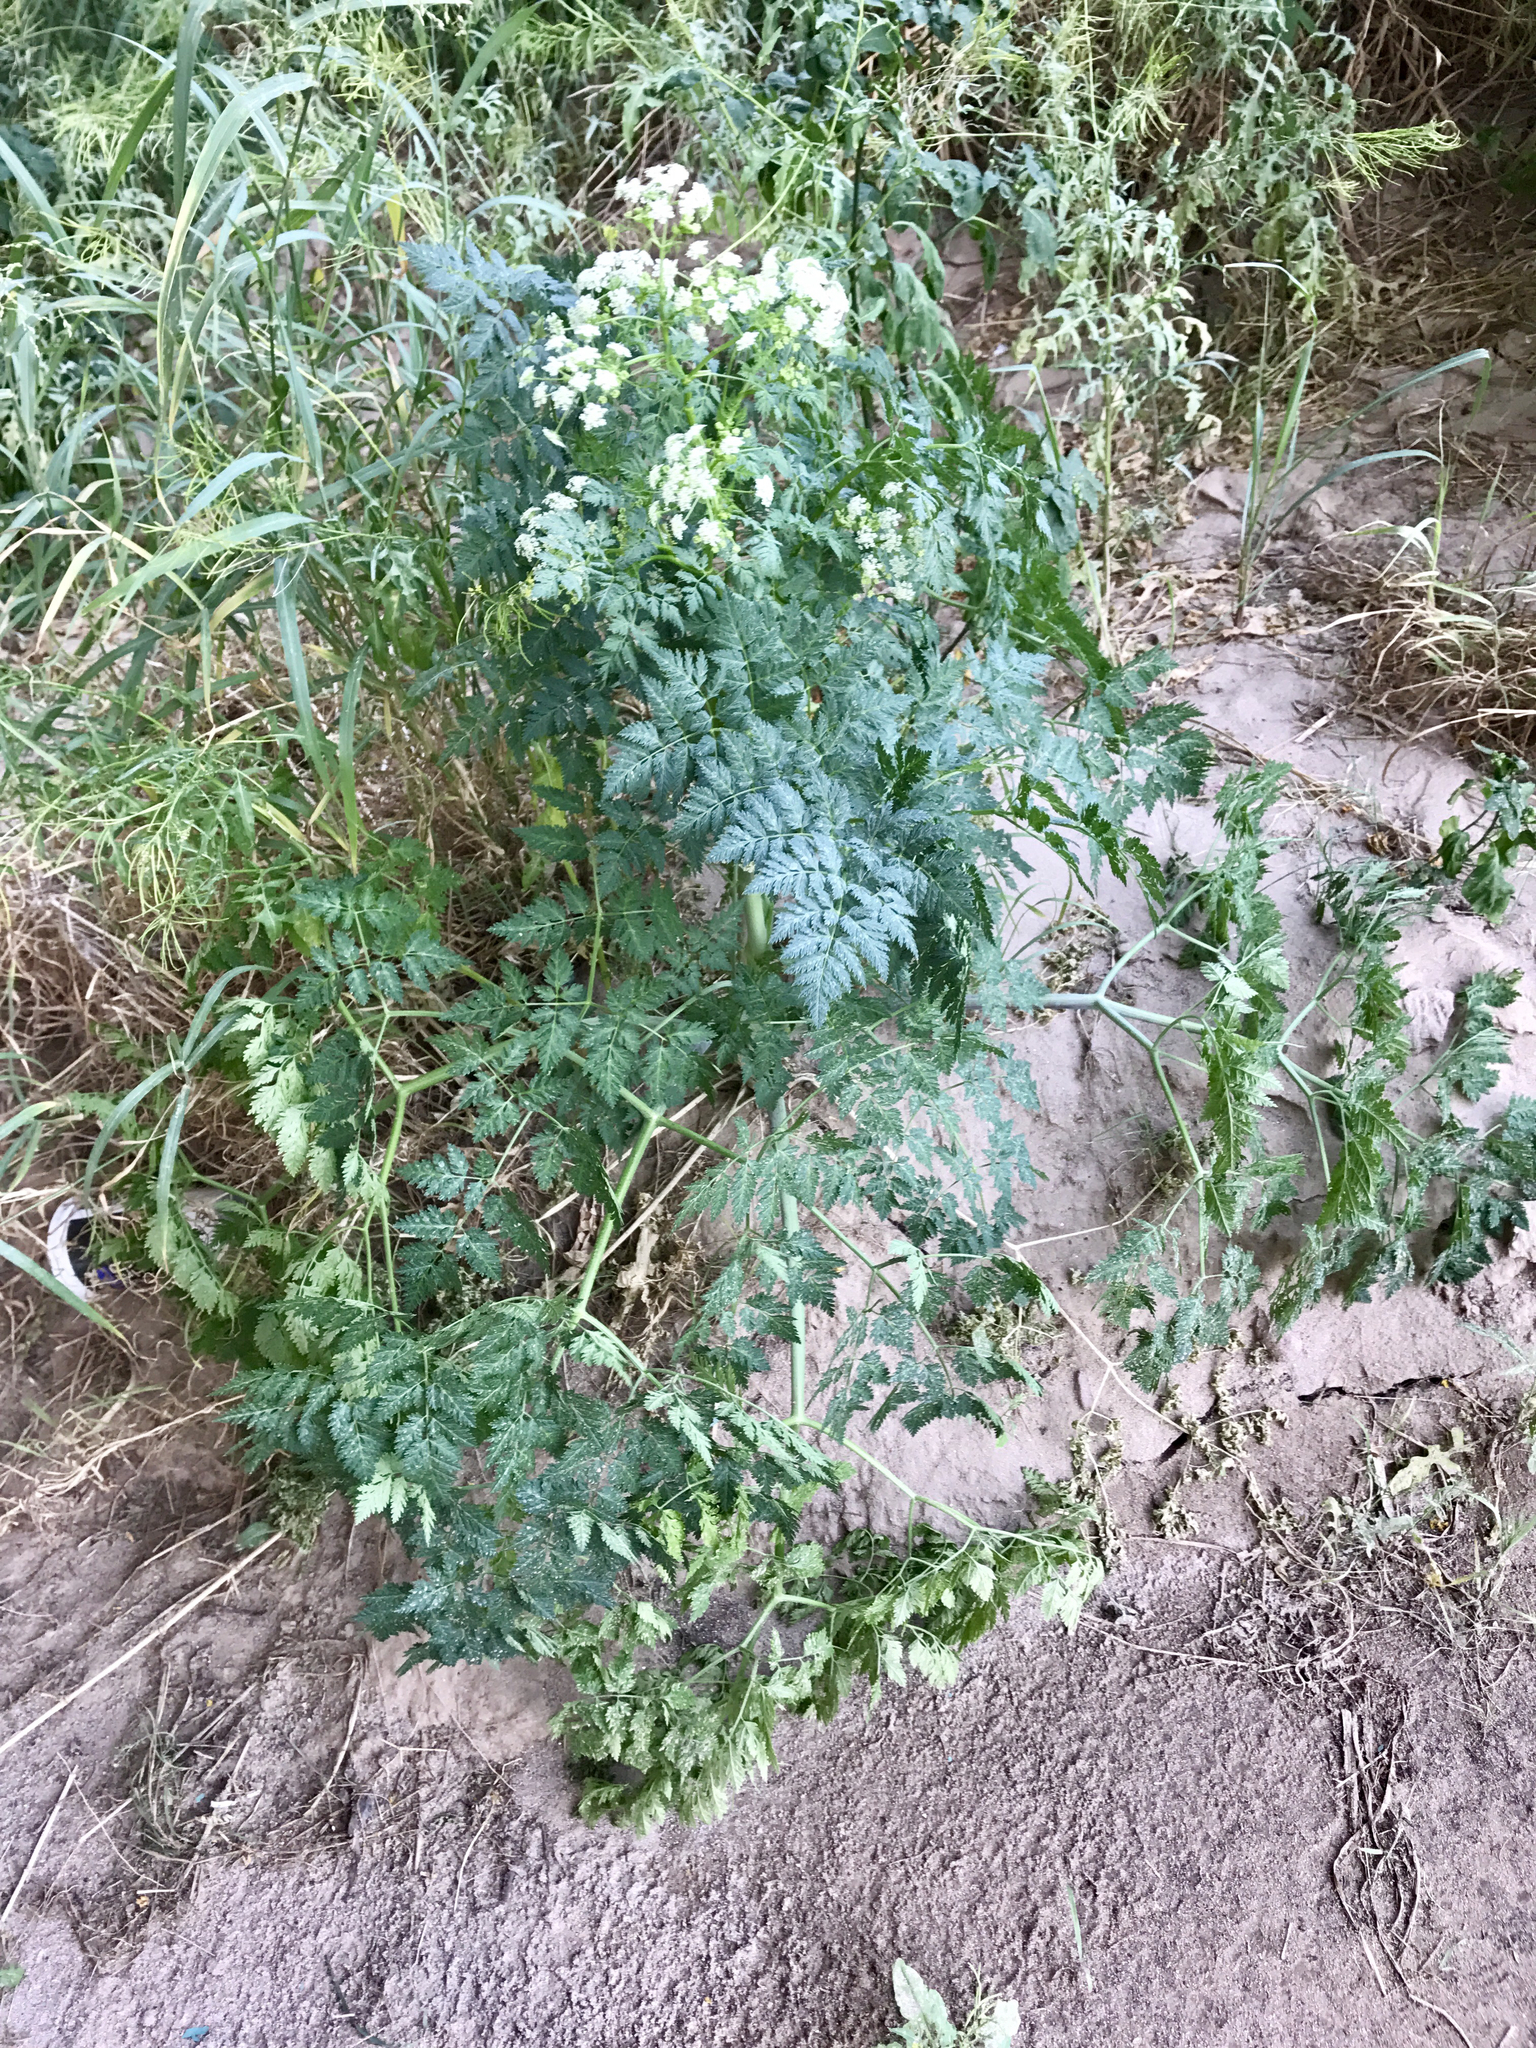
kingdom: Plantae
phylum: Tracheophyta
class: Magnoliopsida
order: Apiales
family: Apiaceae
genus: Conium
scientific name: Conium maculatum
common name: Hemlock
